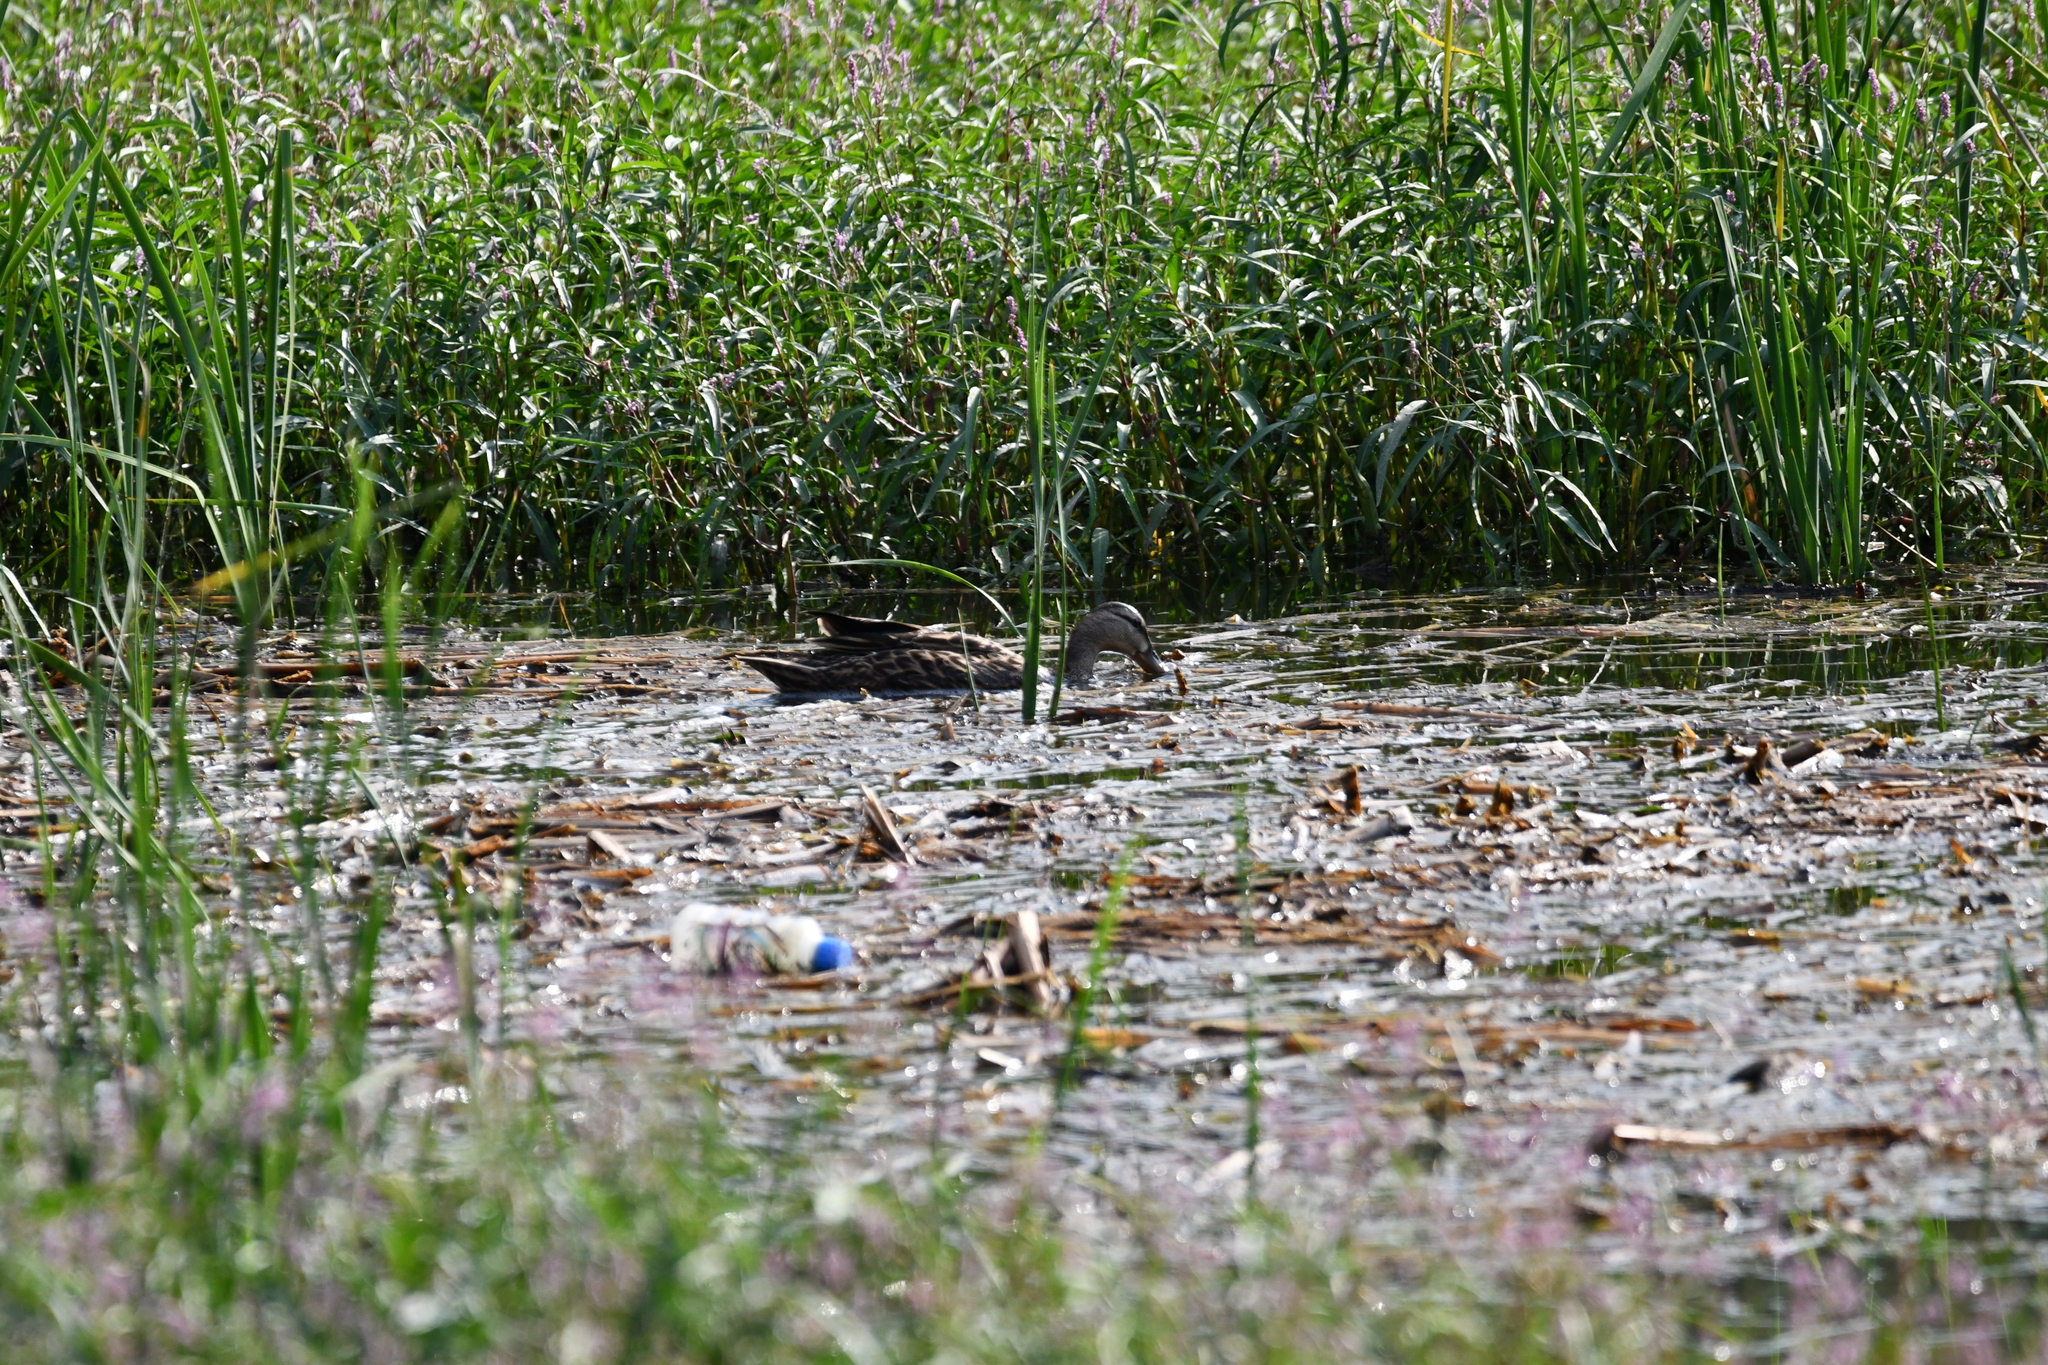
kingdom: Animalia
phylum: Chordata
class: Aves
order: Anseriformes
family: Anatidae
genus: Anas
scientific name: Anas diazi
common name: Mexican duck
